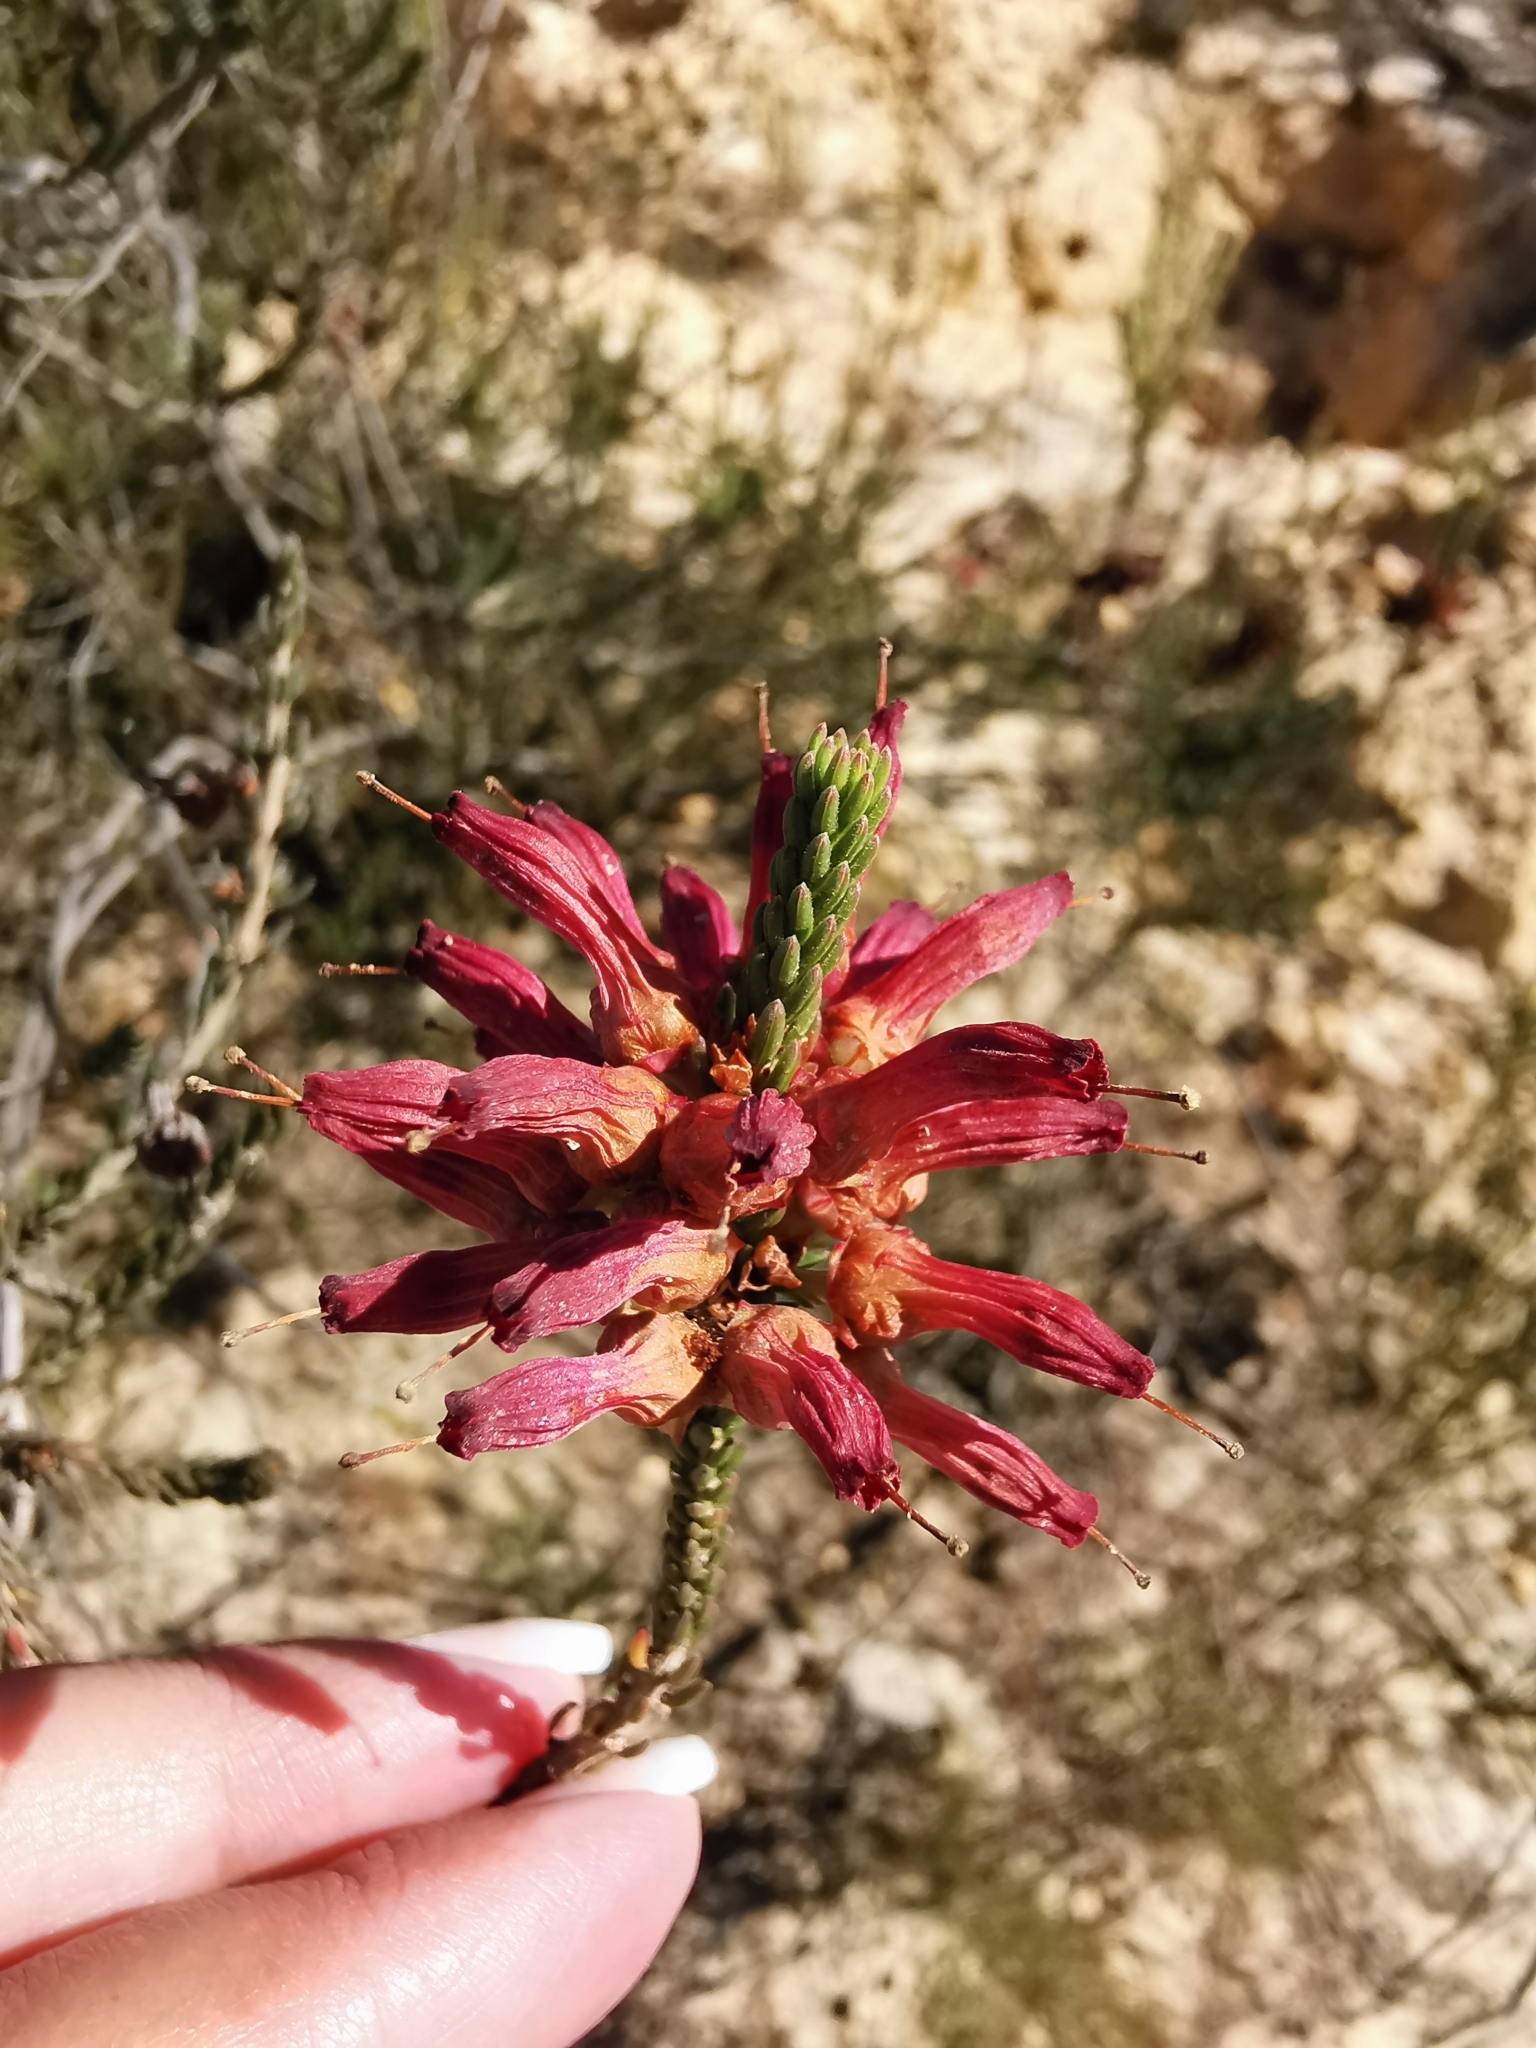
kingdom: Plantae
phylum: Tracheophyta
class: Magnoliopsida
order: Ericales
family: Ericaceae
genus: Erica
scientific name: Erica mammosa
